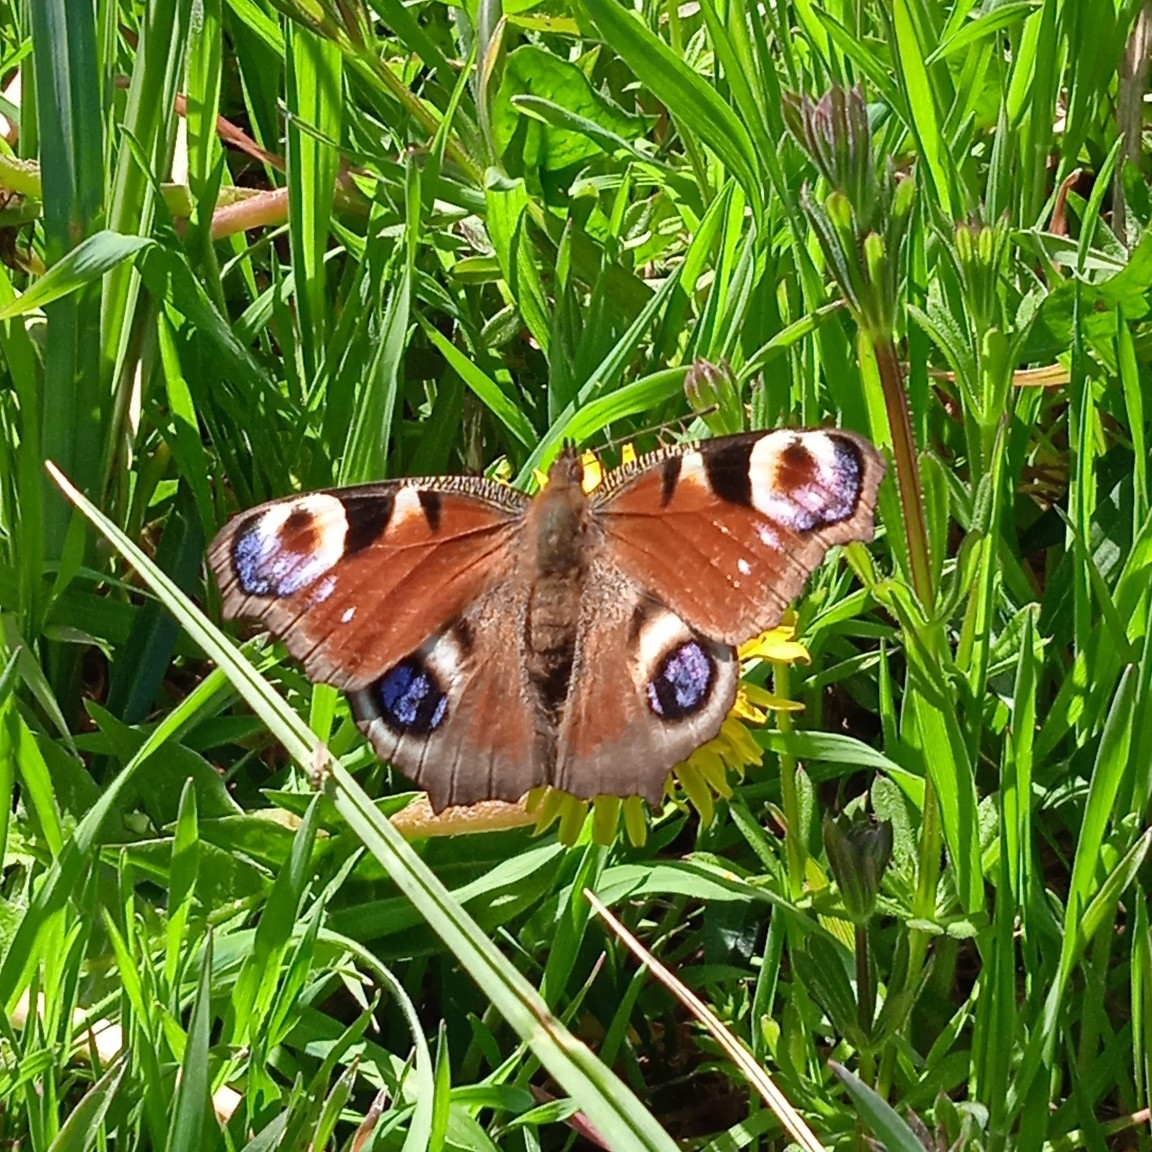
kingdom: Animalia
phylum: Arthropoda
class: Insecta
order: Lepidoptera
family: Nymphalidae
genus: Aglais
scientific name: Aglais io
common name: Peacock
